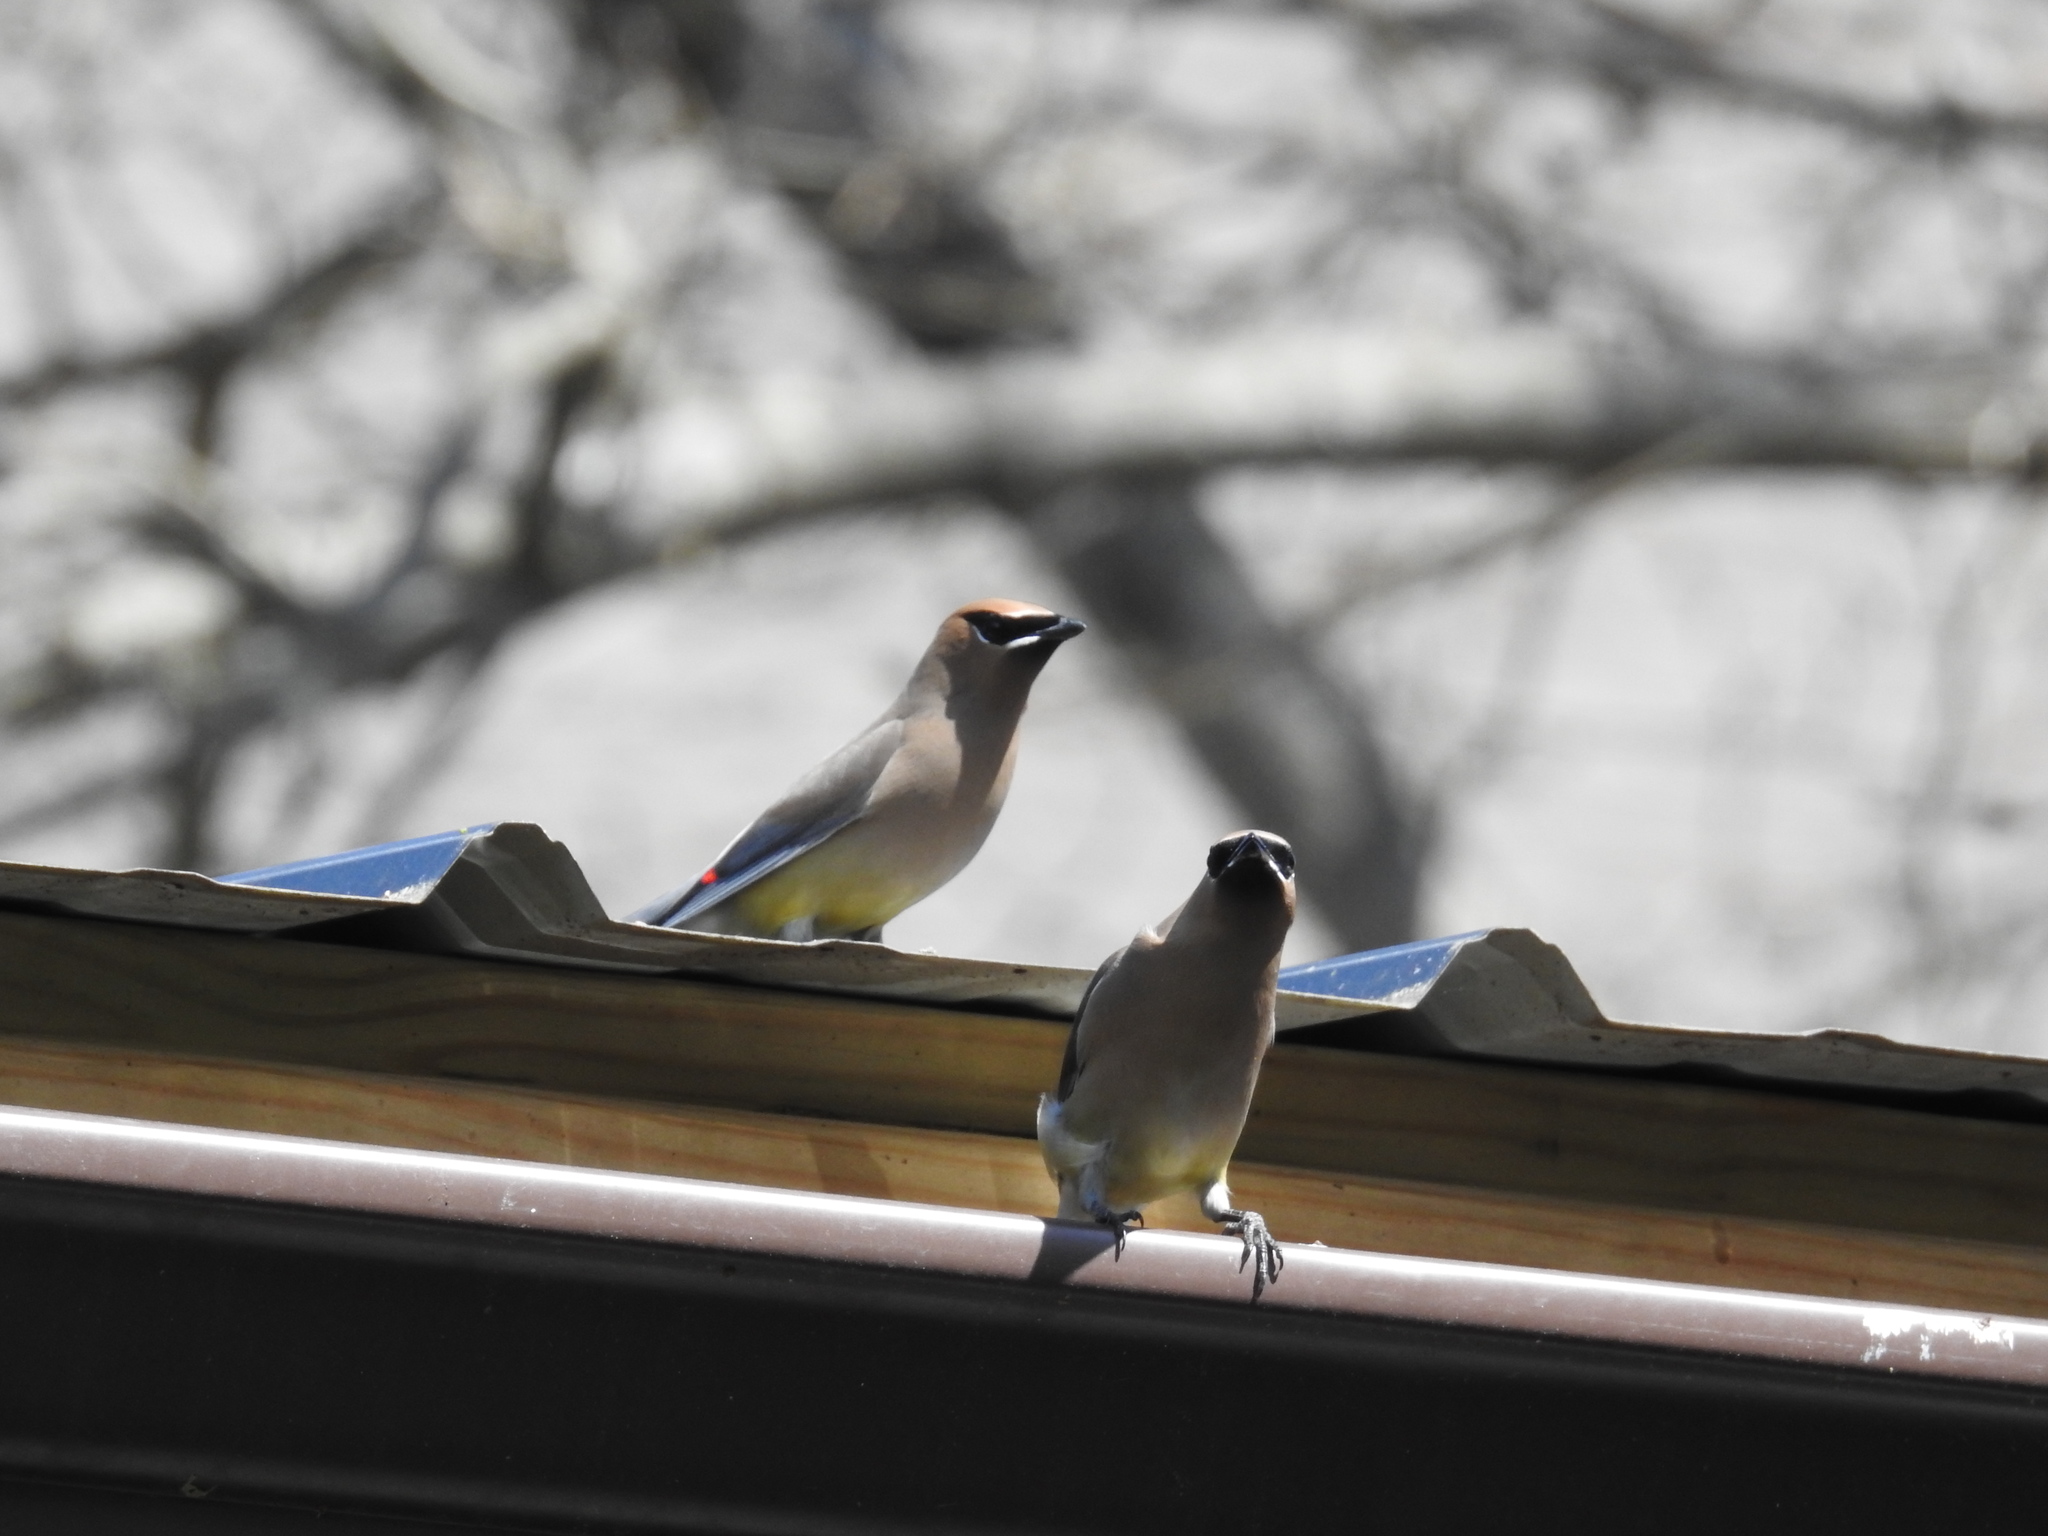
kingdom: Animalia
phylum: Chordata
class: Aves
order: Passeriformes
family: Bombycillidae
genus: Bombycilla
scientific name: Bombycilla cedrorum
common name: Cedar waxwing
